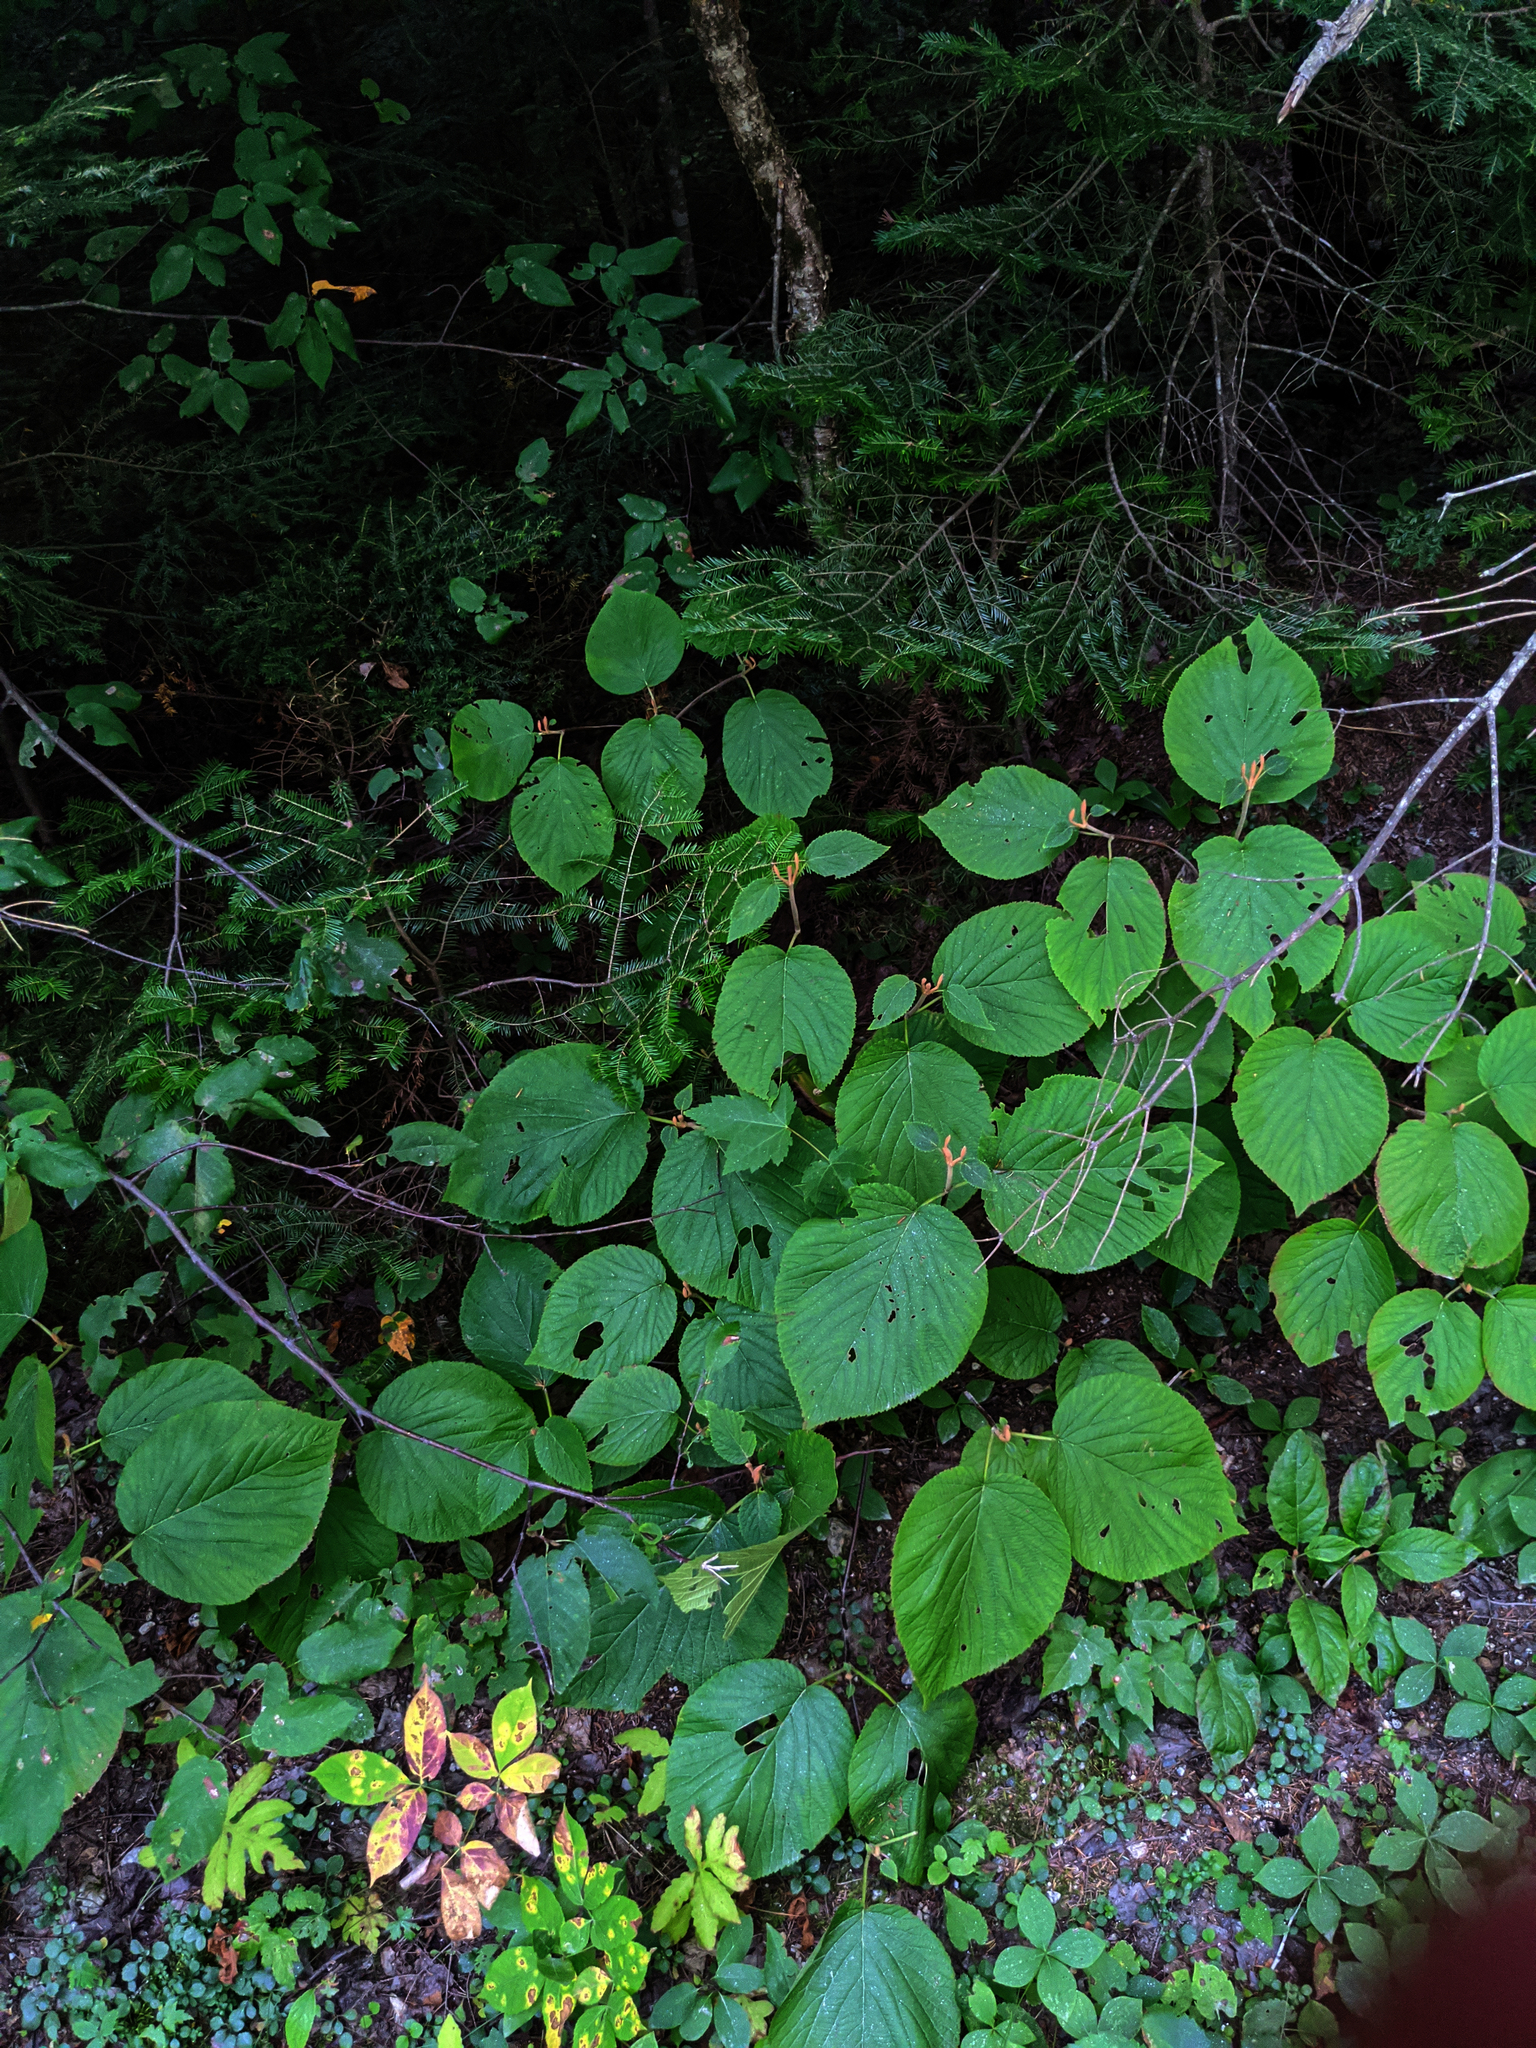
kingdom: Plantae
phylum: Tracheophyta
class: Magnoliopsida
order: Dipsacales
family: Viburnaceae
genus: Viburnum
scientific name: Viburnum lantanoides
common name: Hobblebush
